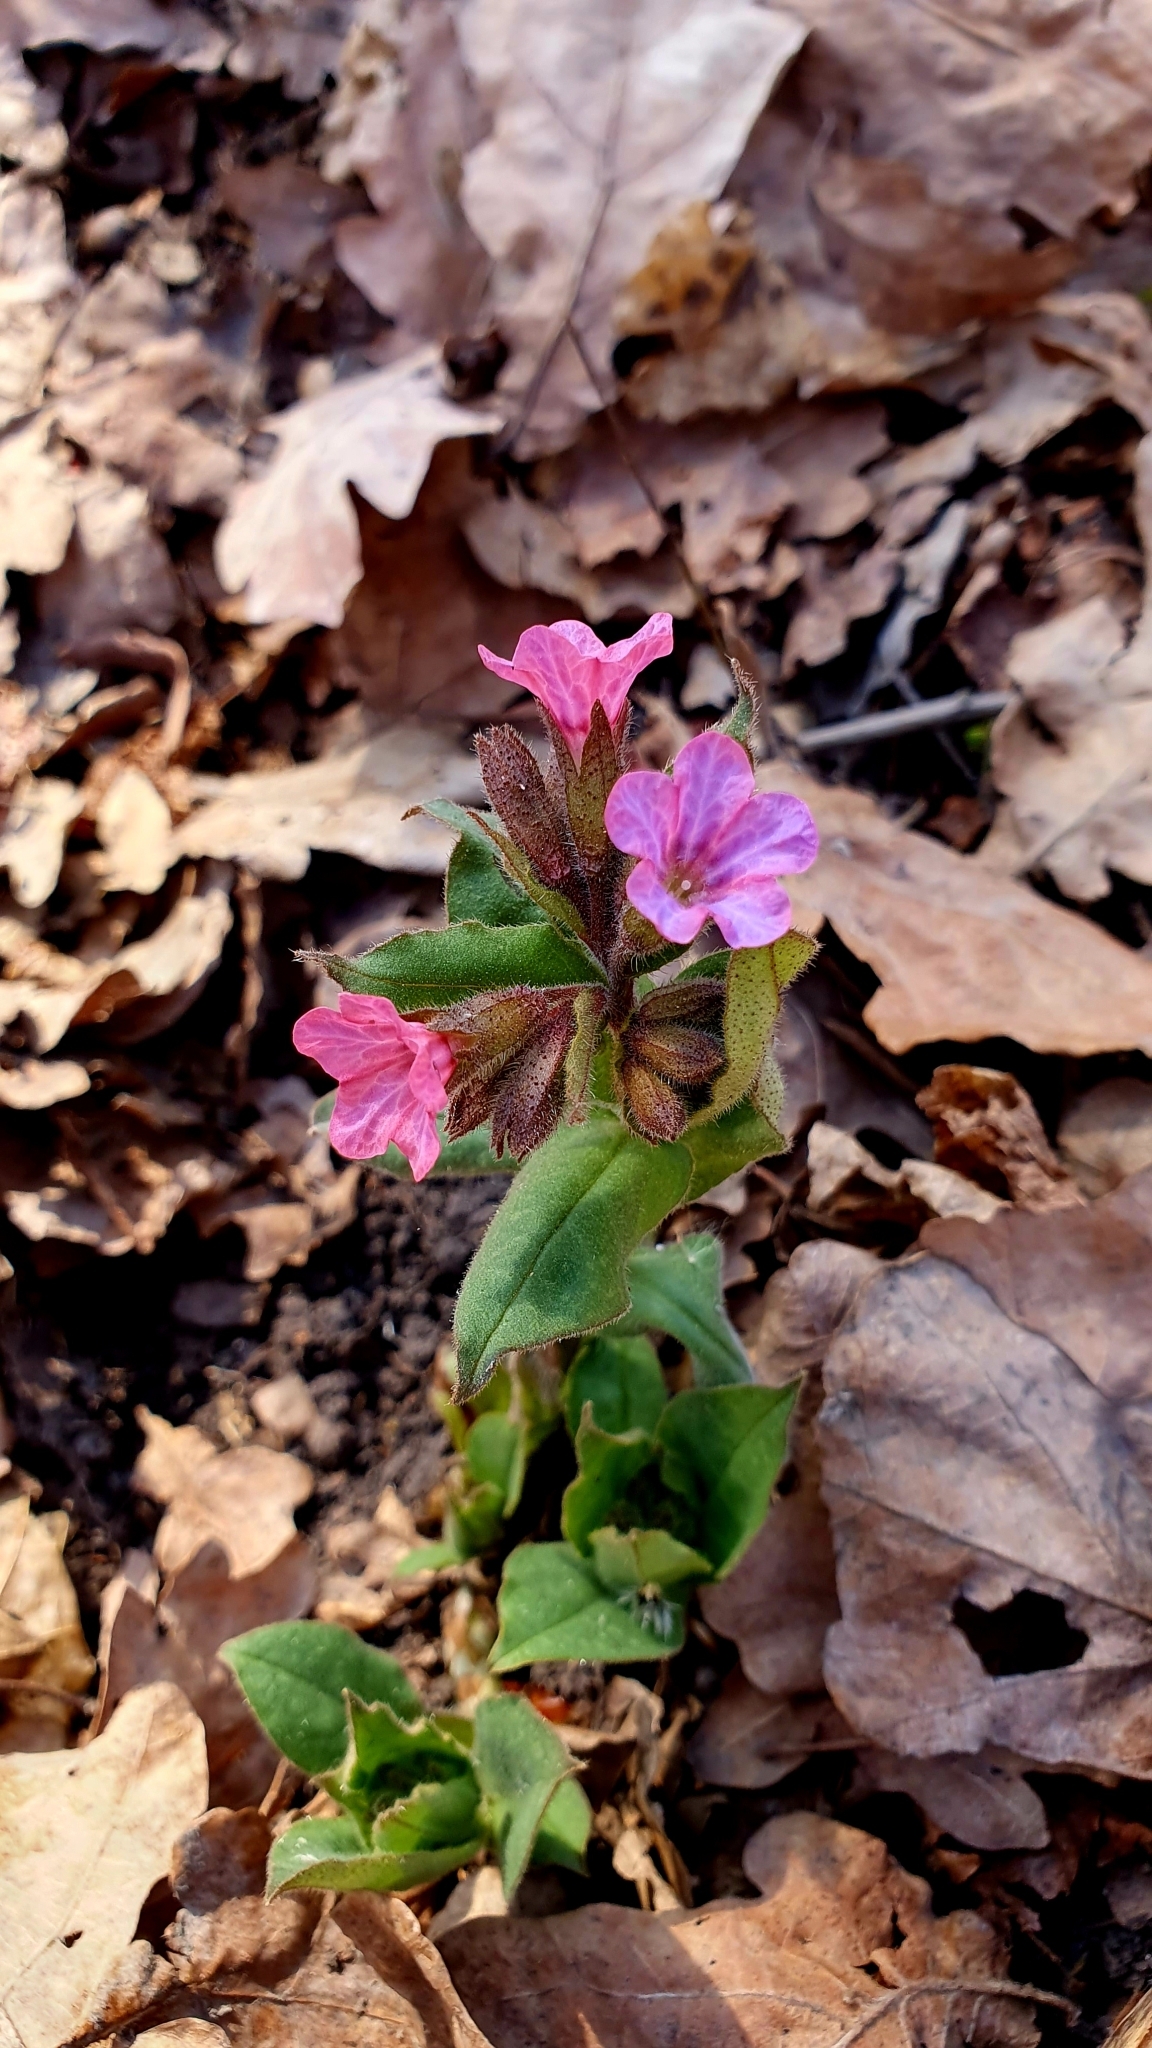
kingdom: Plantae
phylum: Tracheophyta
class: Magnoliopsida
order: Boraginales
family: Boraginaceae
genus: Pulmonaria
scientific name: Pulmonaria obscura
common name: Suffolk lungwort
